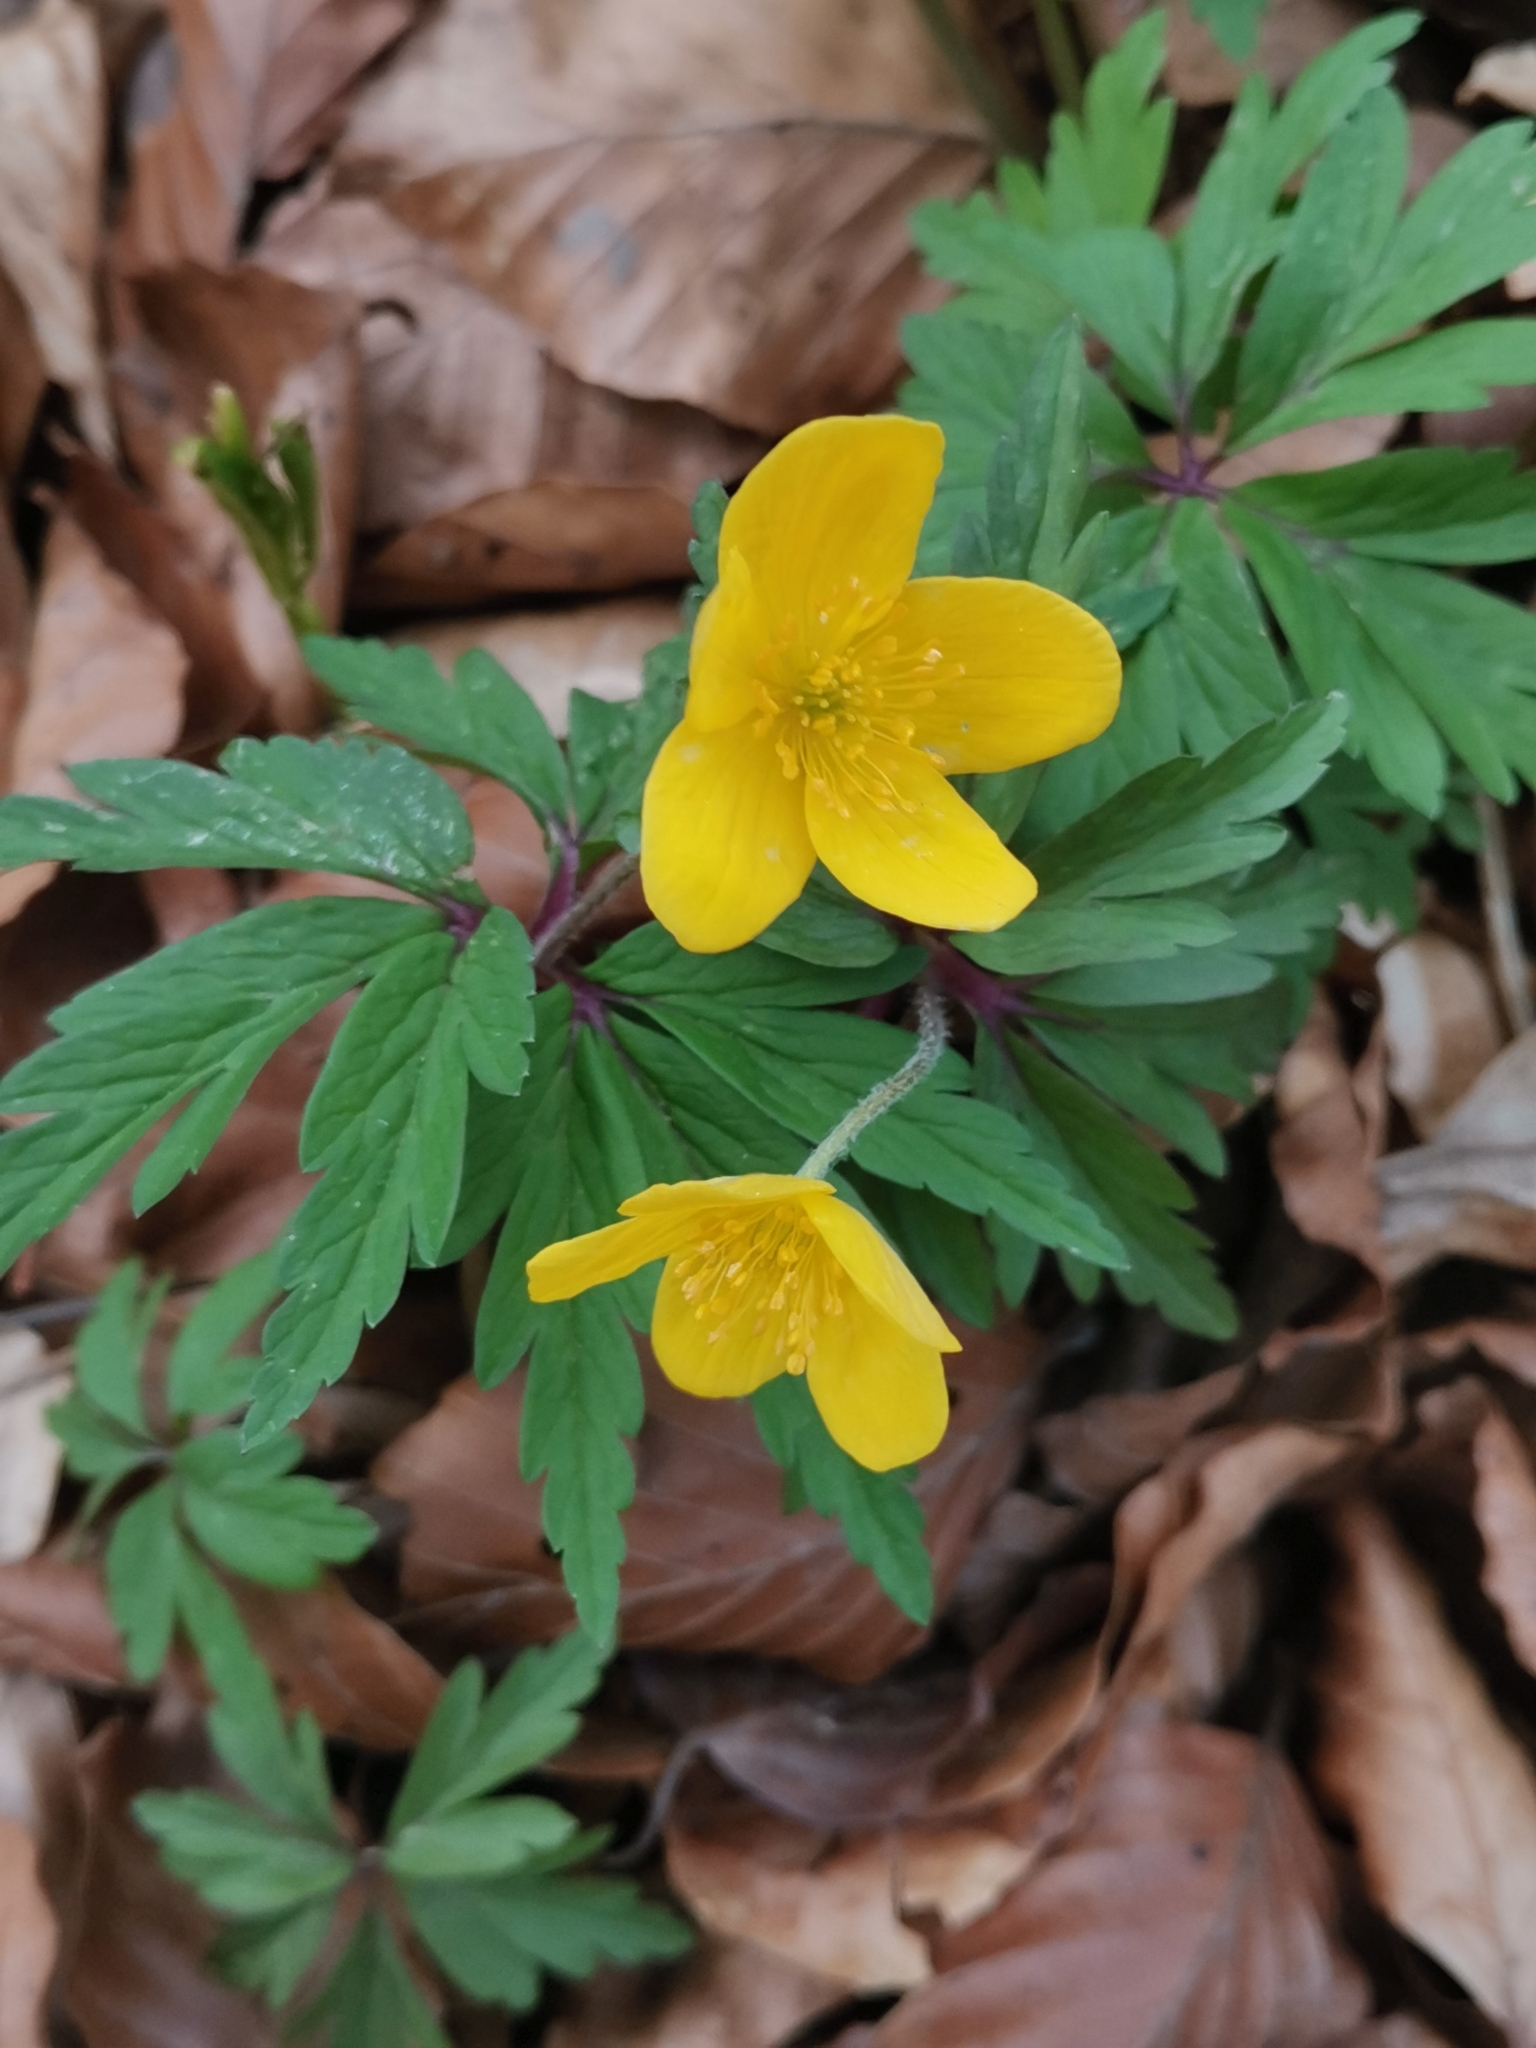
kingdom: Plantae
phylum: Tracheophyta
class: Magnoliopsida
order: Ranunculales
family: Ranunculaceae
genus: Anemone
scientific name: Anemone ranunculoides
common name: Yellow anemone
